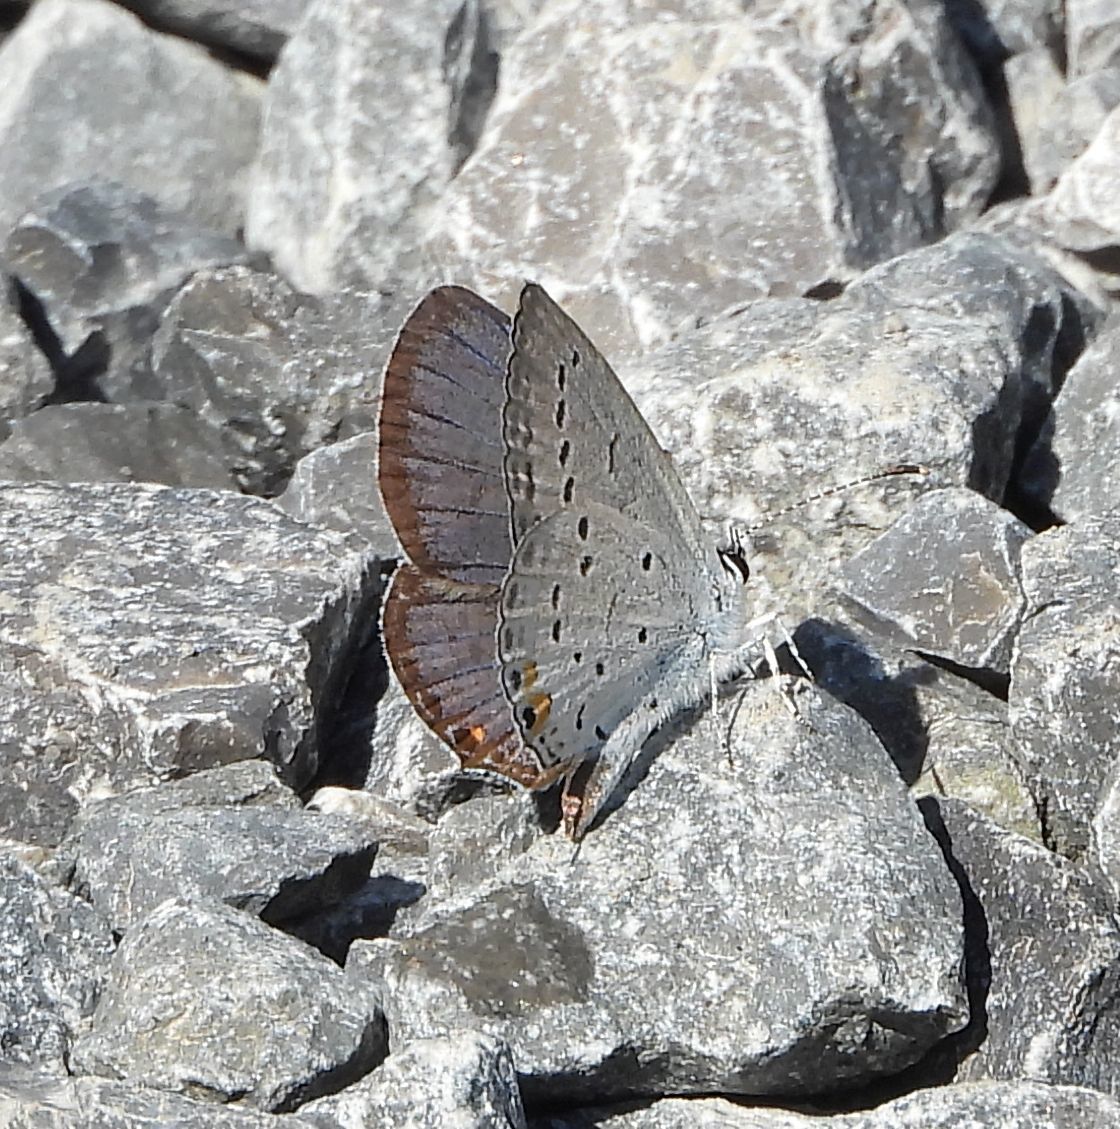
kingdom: Animalia
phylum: Arthropoda
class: Insecta
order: Lepidoptera
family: Lycaenidae
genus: Elkalyce
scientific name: Elkalyce comyntas
